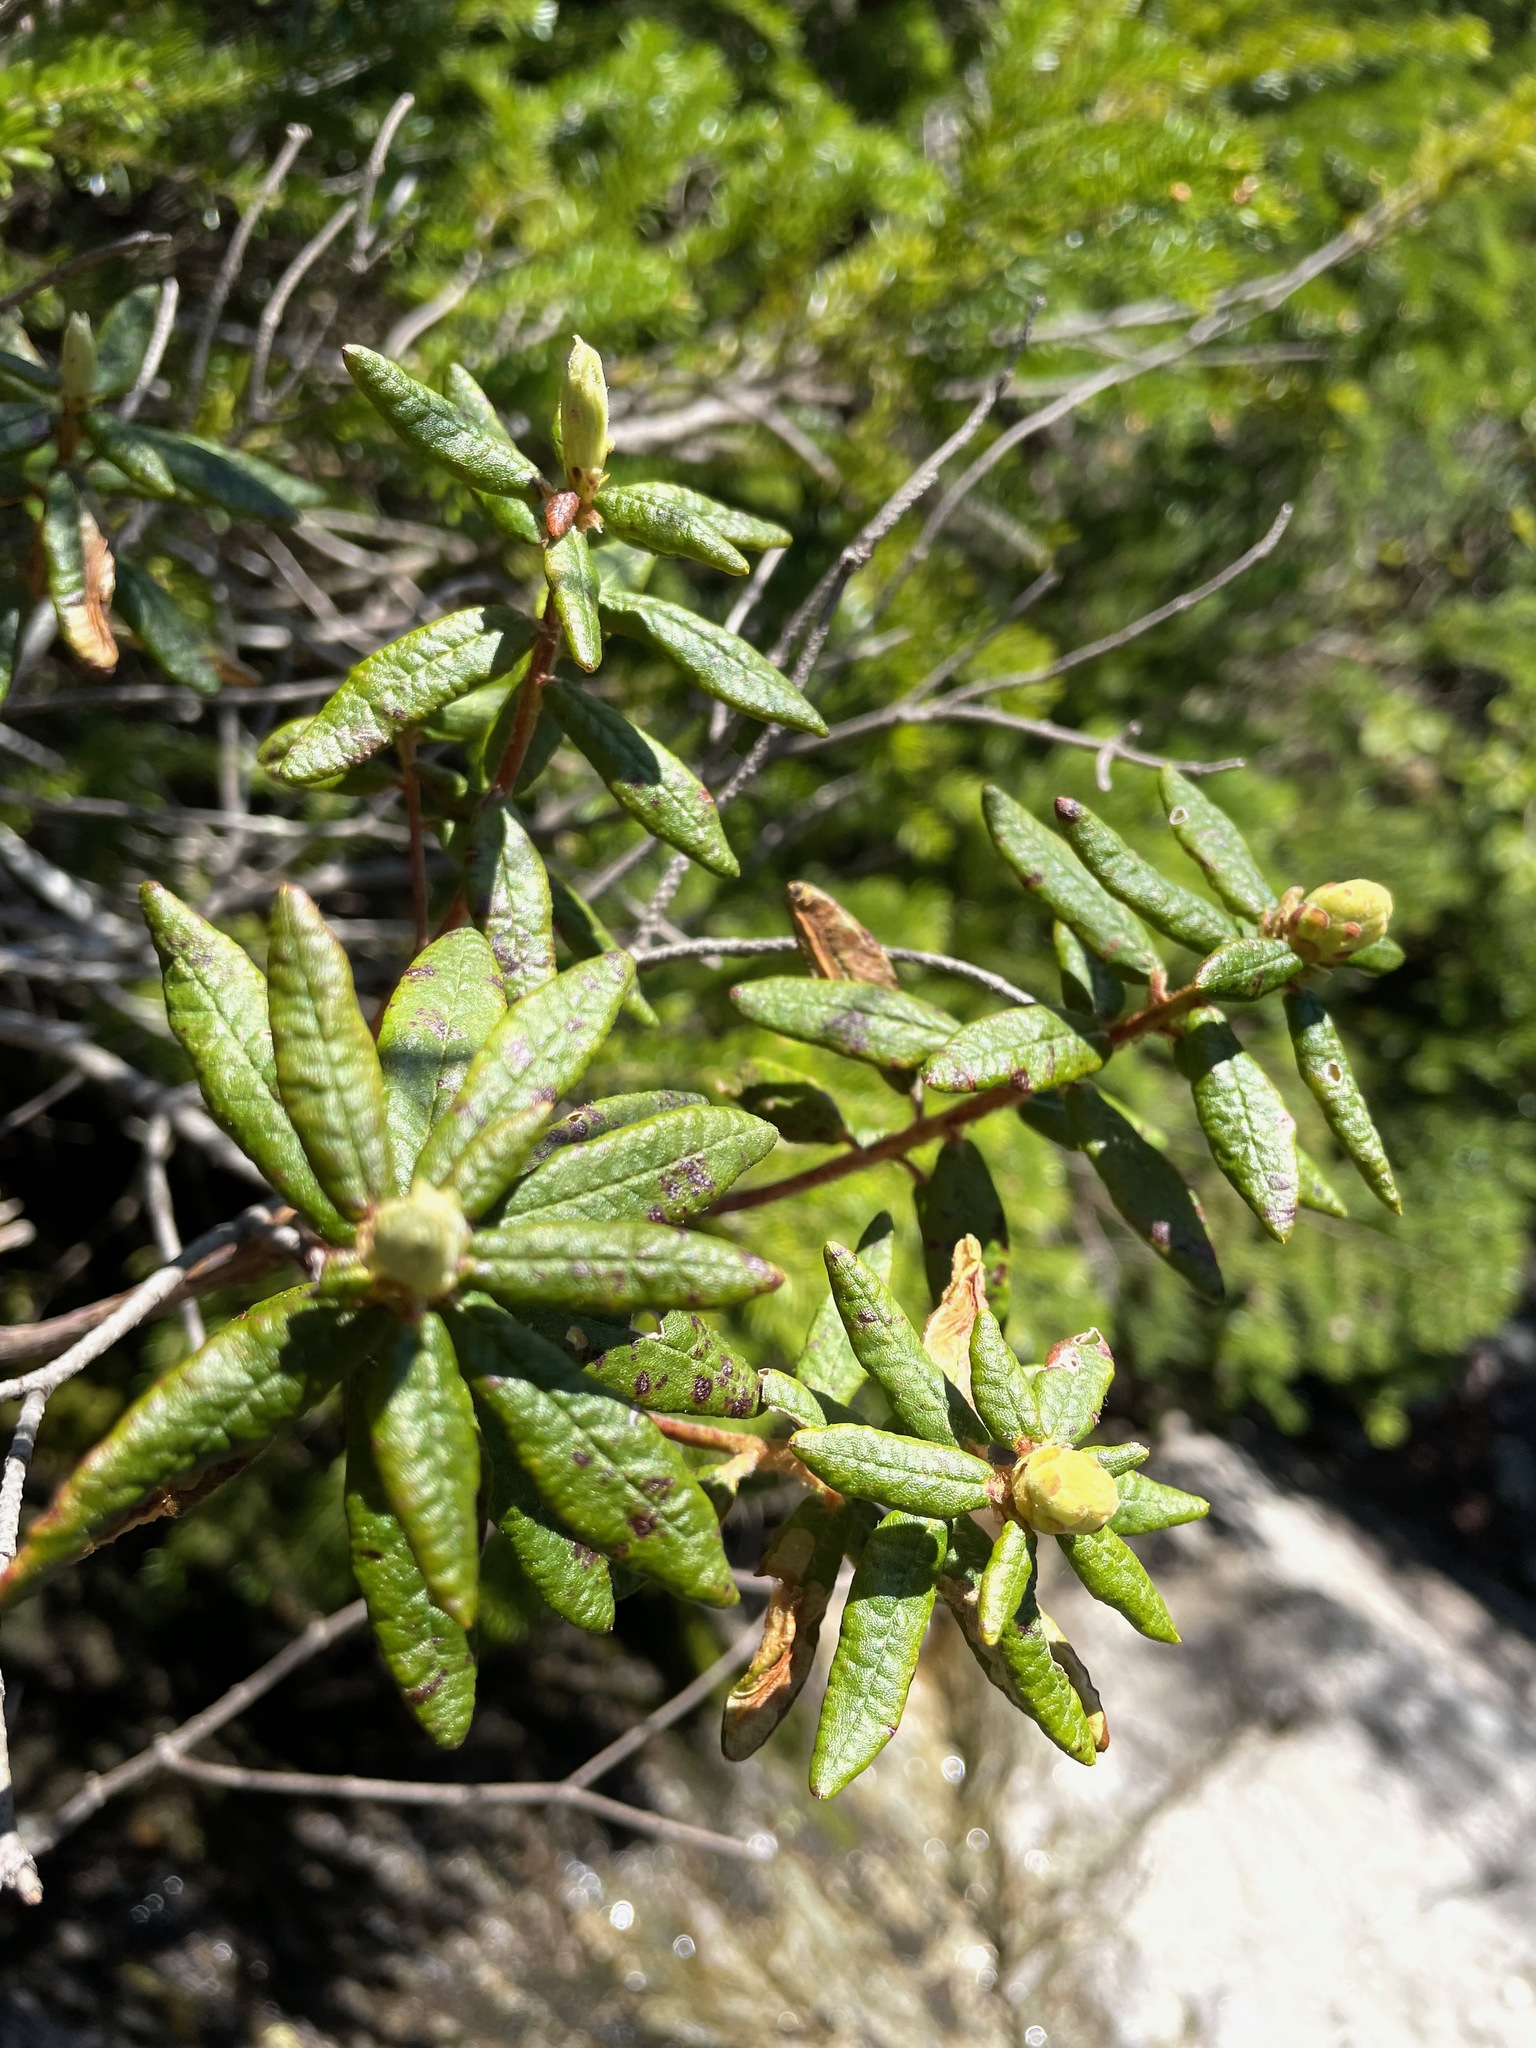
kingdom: Plantae
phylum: Tracheophyta
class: Magnoliopsida
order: Ericales
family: Ericaceae
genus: Rhododendron
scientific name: Rhododendron groenlandicum
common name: Bog labrador tea
